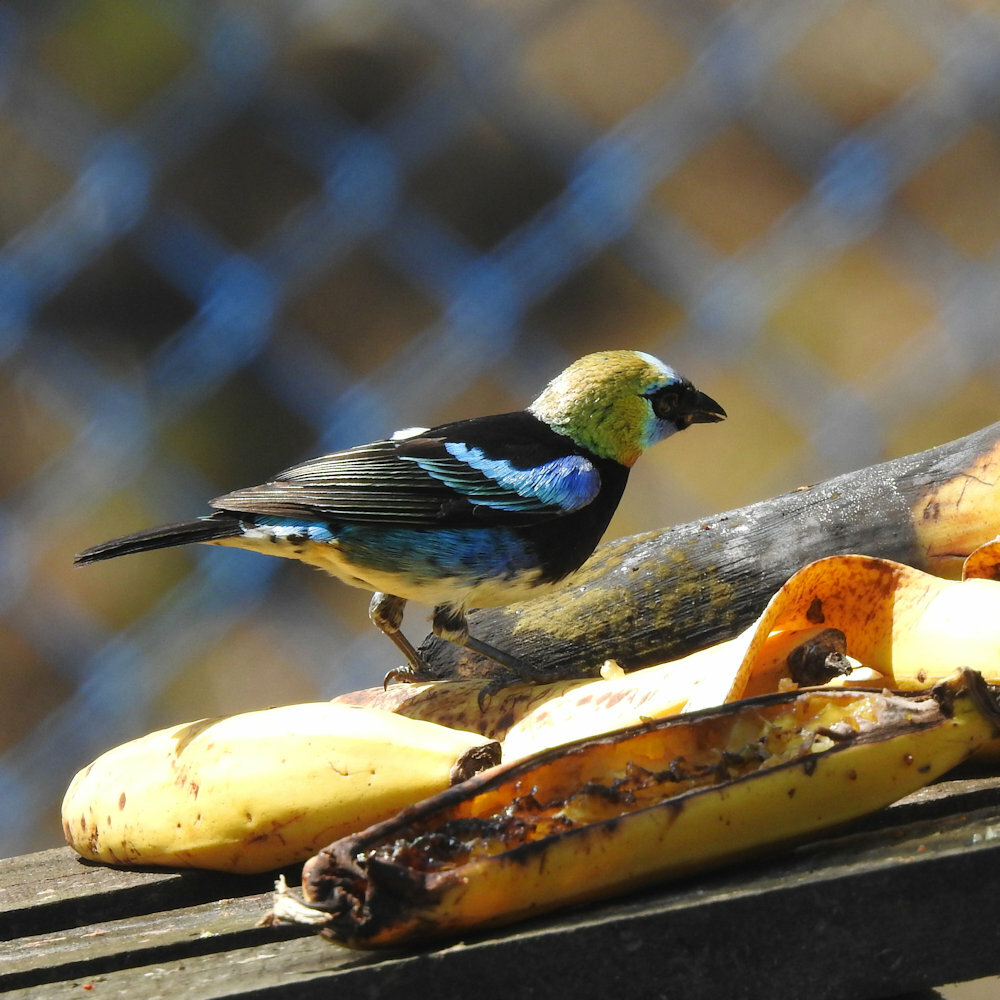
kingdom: Animalia
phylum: Chordata
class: Aves
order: Passeriformes
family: Thraupidae
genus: Stilpnia
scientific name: Stilpnia larvata
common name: Golden-hooded tanager
